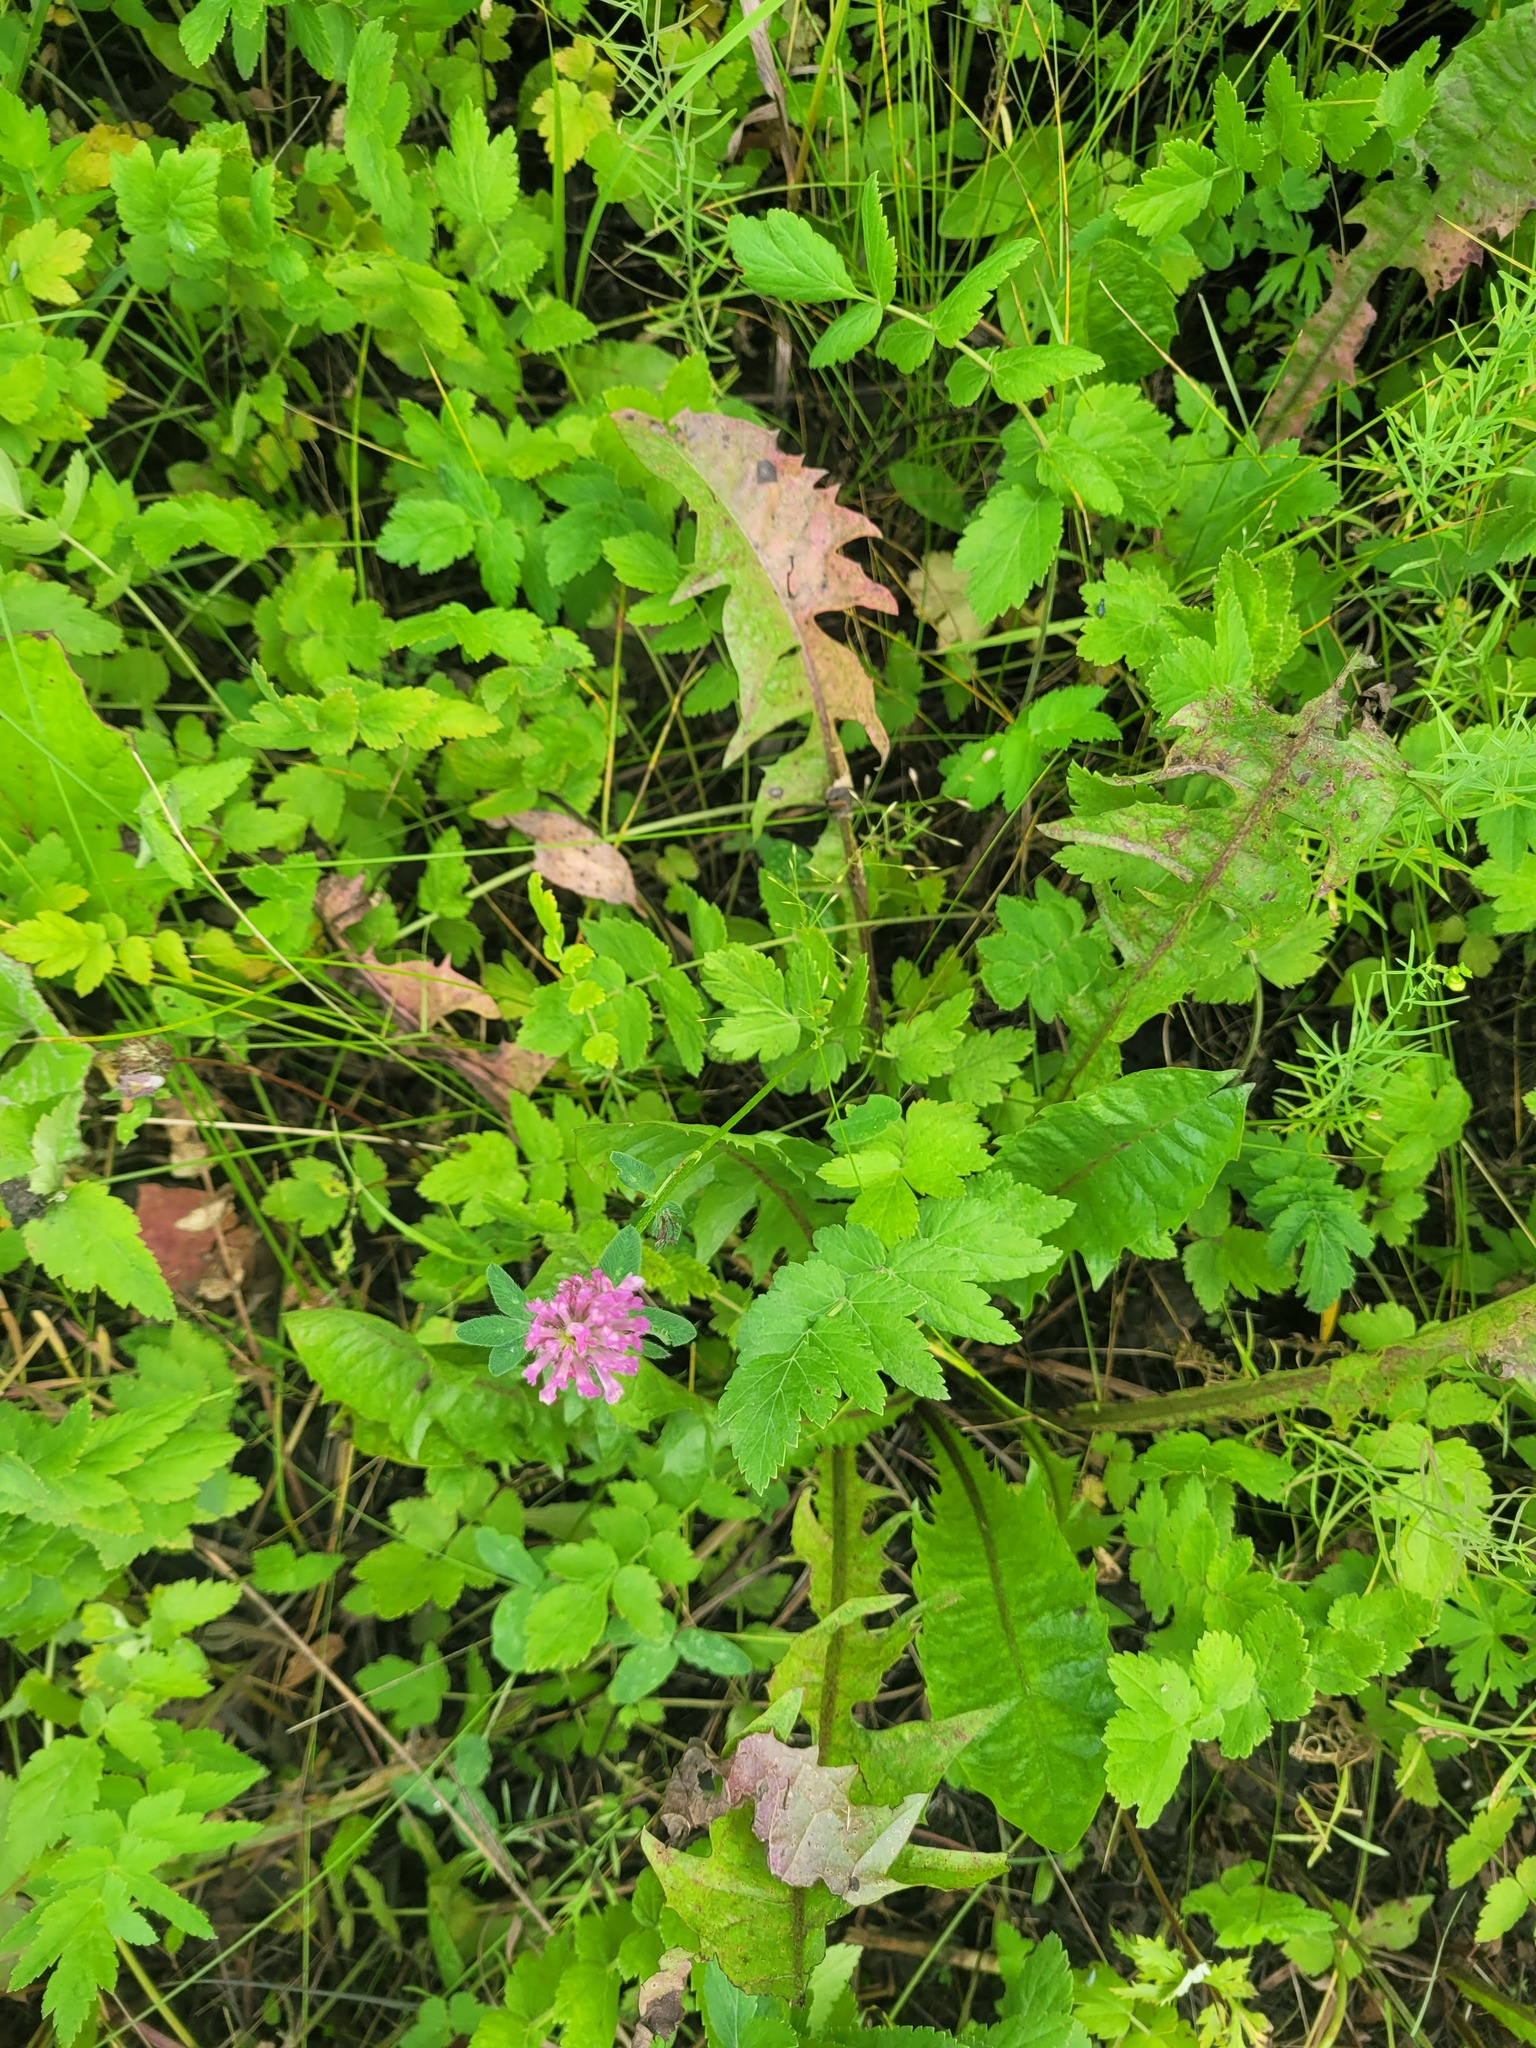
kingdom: Plantae
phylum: Tracheophyta
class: Magnoliopsida
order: Fabales
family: Fabaceae
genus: Trifolium
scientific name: Trifolium pratense
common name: Red clover
